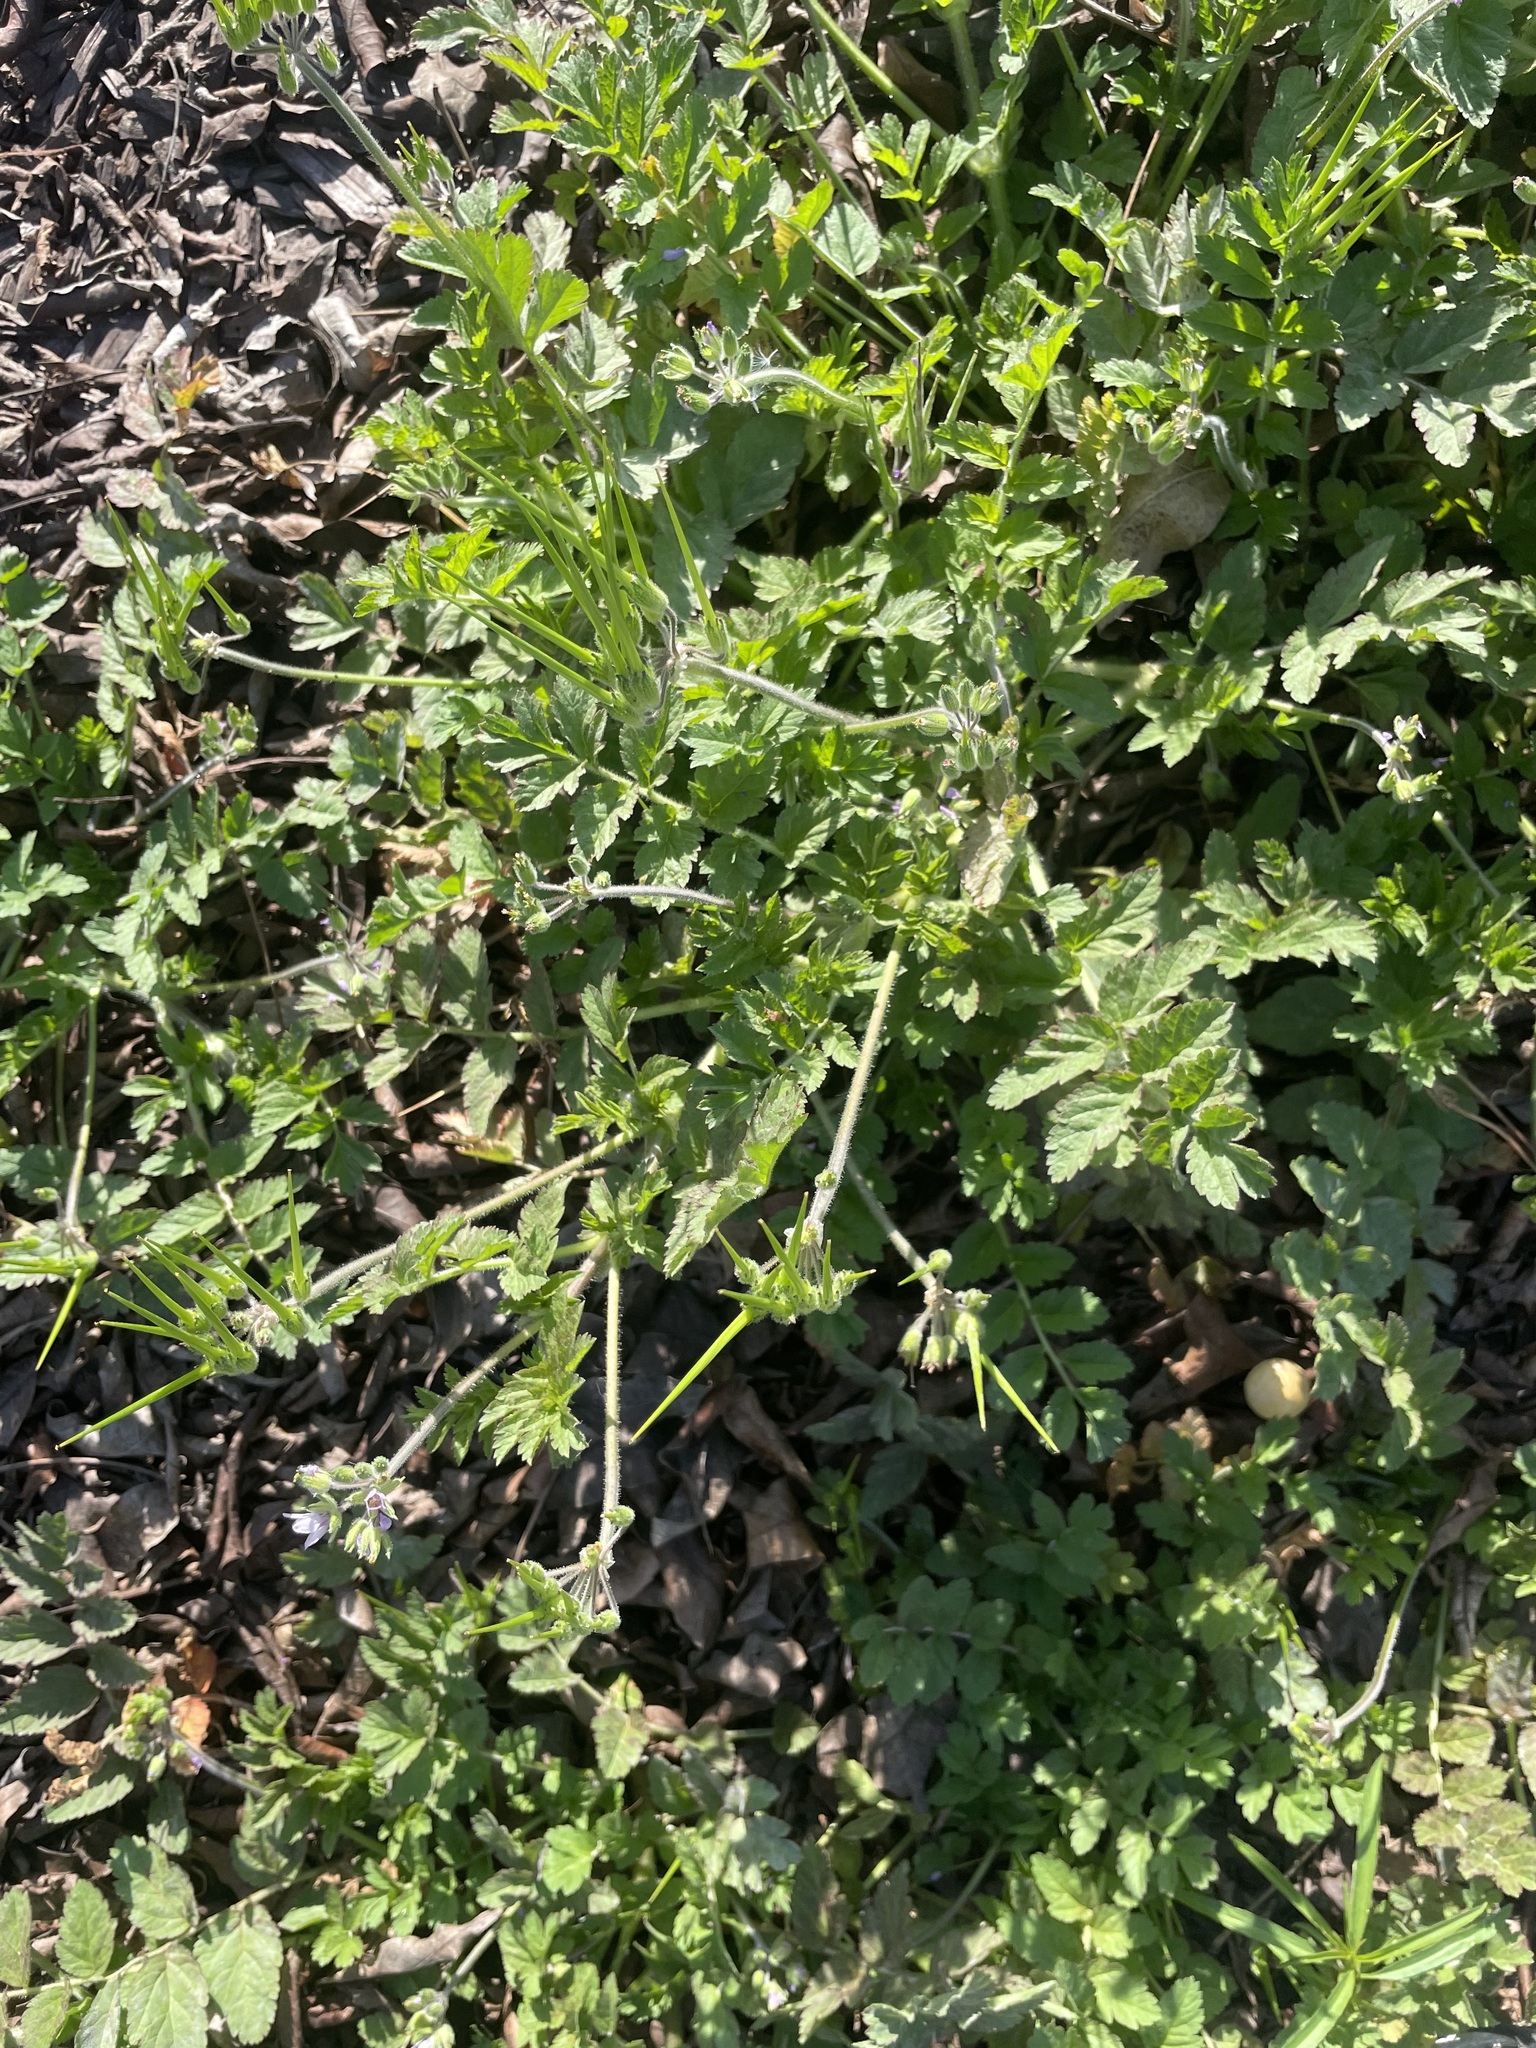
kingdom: Plantae
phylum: Tracheophyta
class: Magnoliopsida
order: Geraniales
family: Geraniaceae
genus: Erodium
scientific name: Erodium moschatum
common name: Musk stork's-bill
